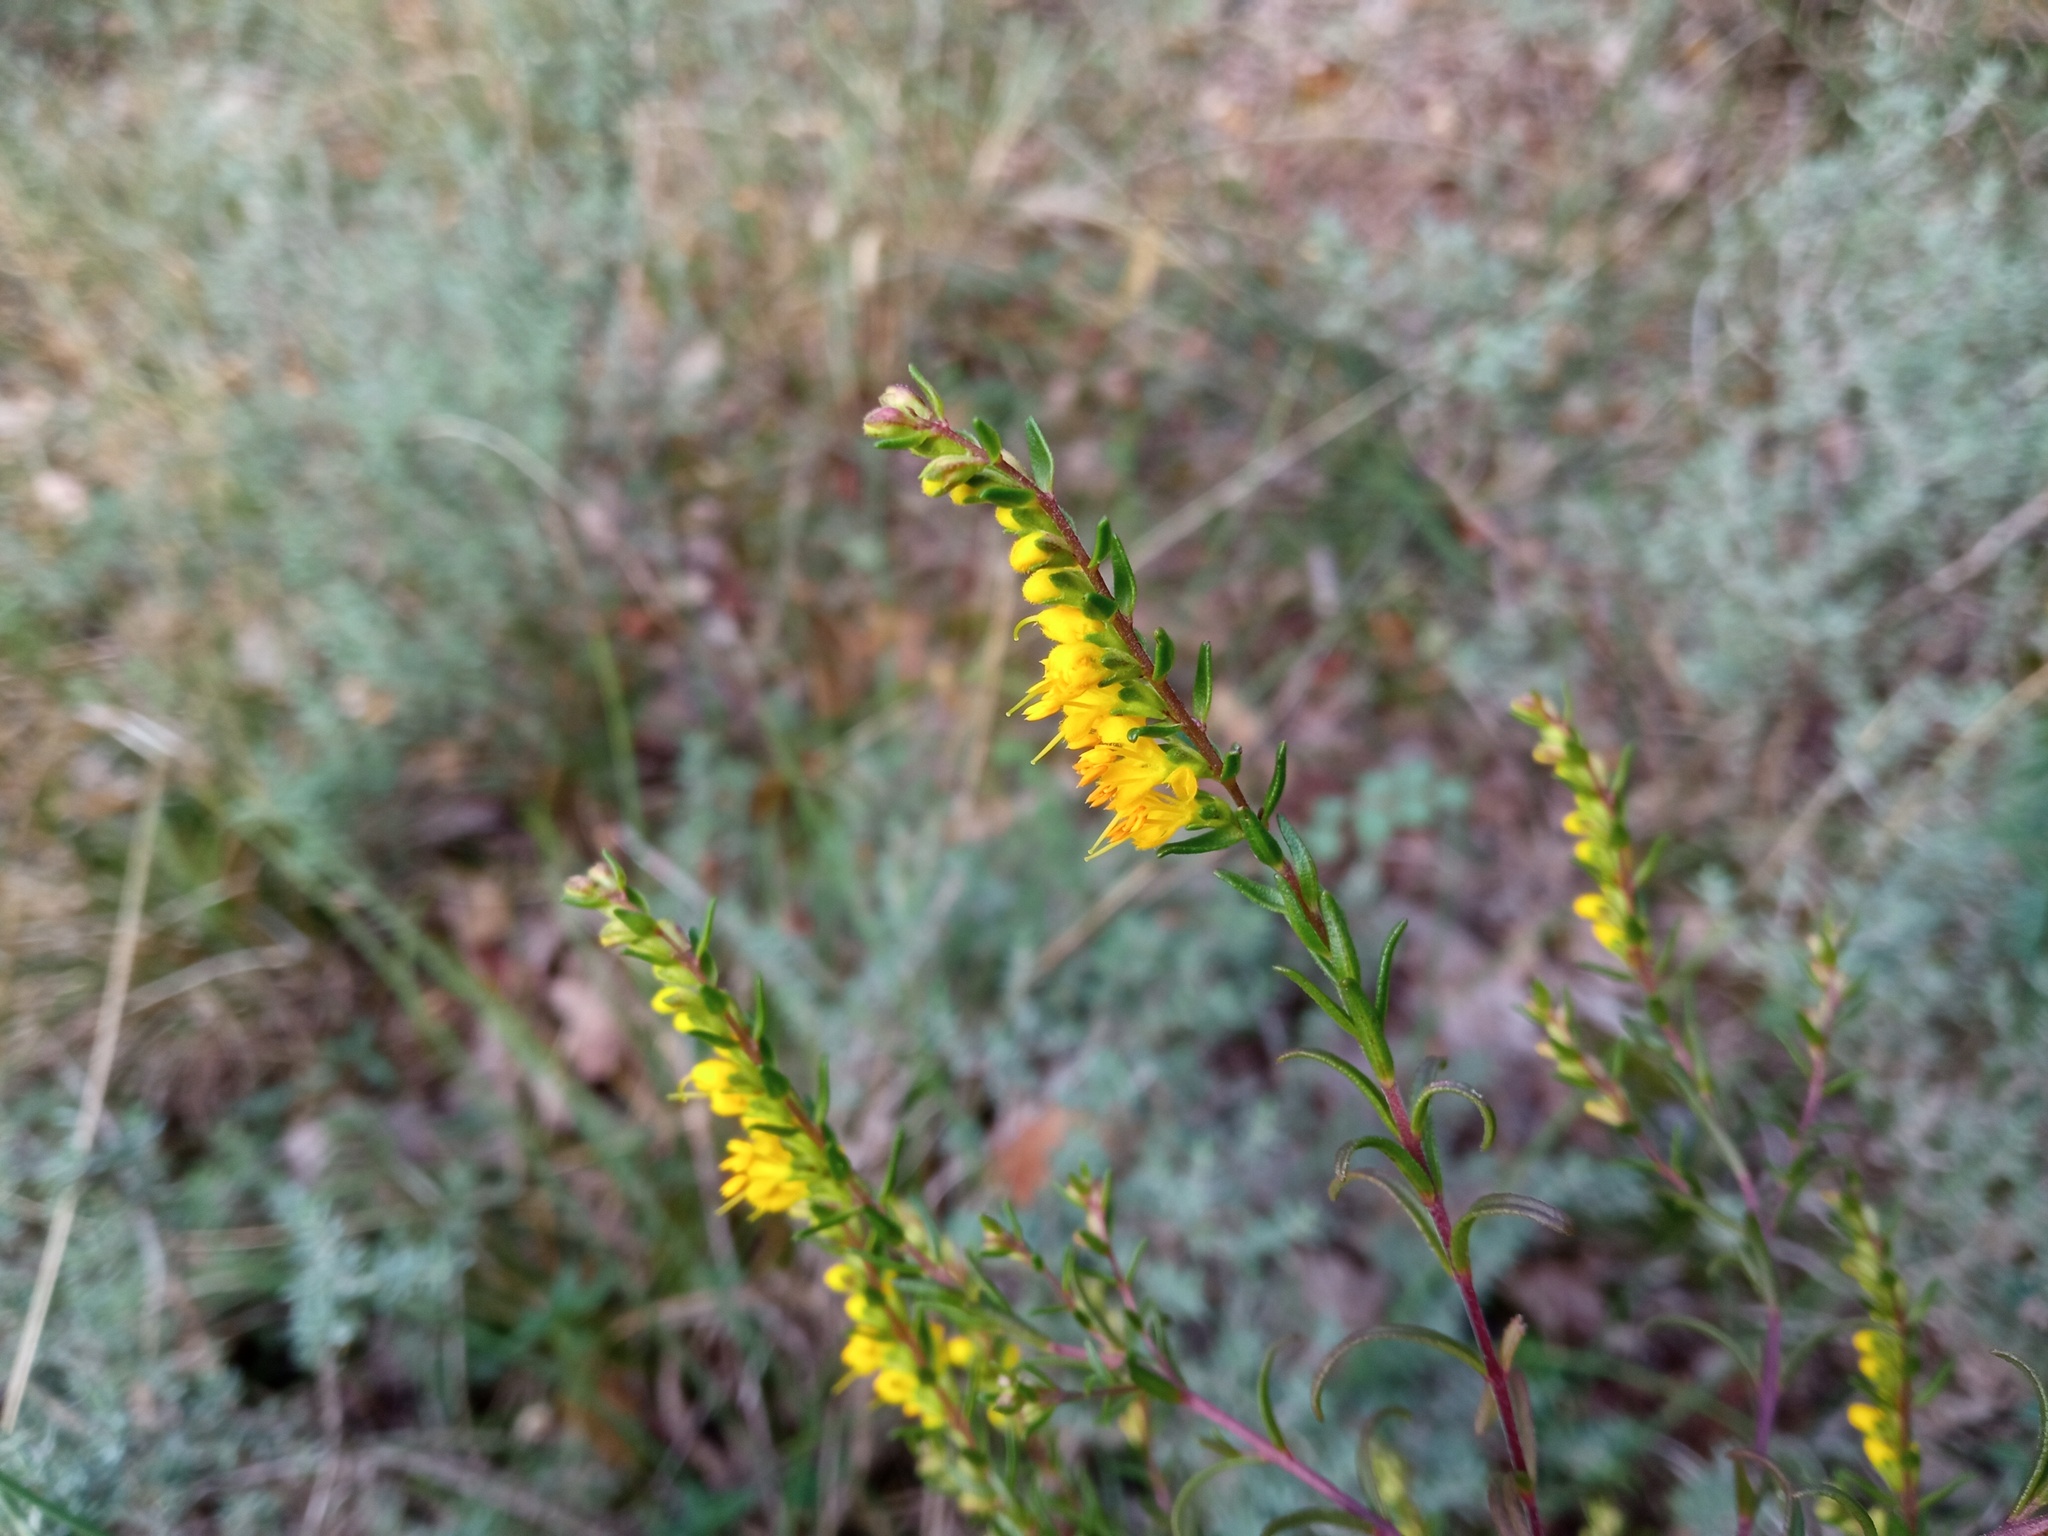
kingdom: Plantae
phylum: Tracheophyta
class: Magnoliopsida
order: Lamiales
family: Orobanchaceae
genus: Odontites
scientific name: Odontites luteus
